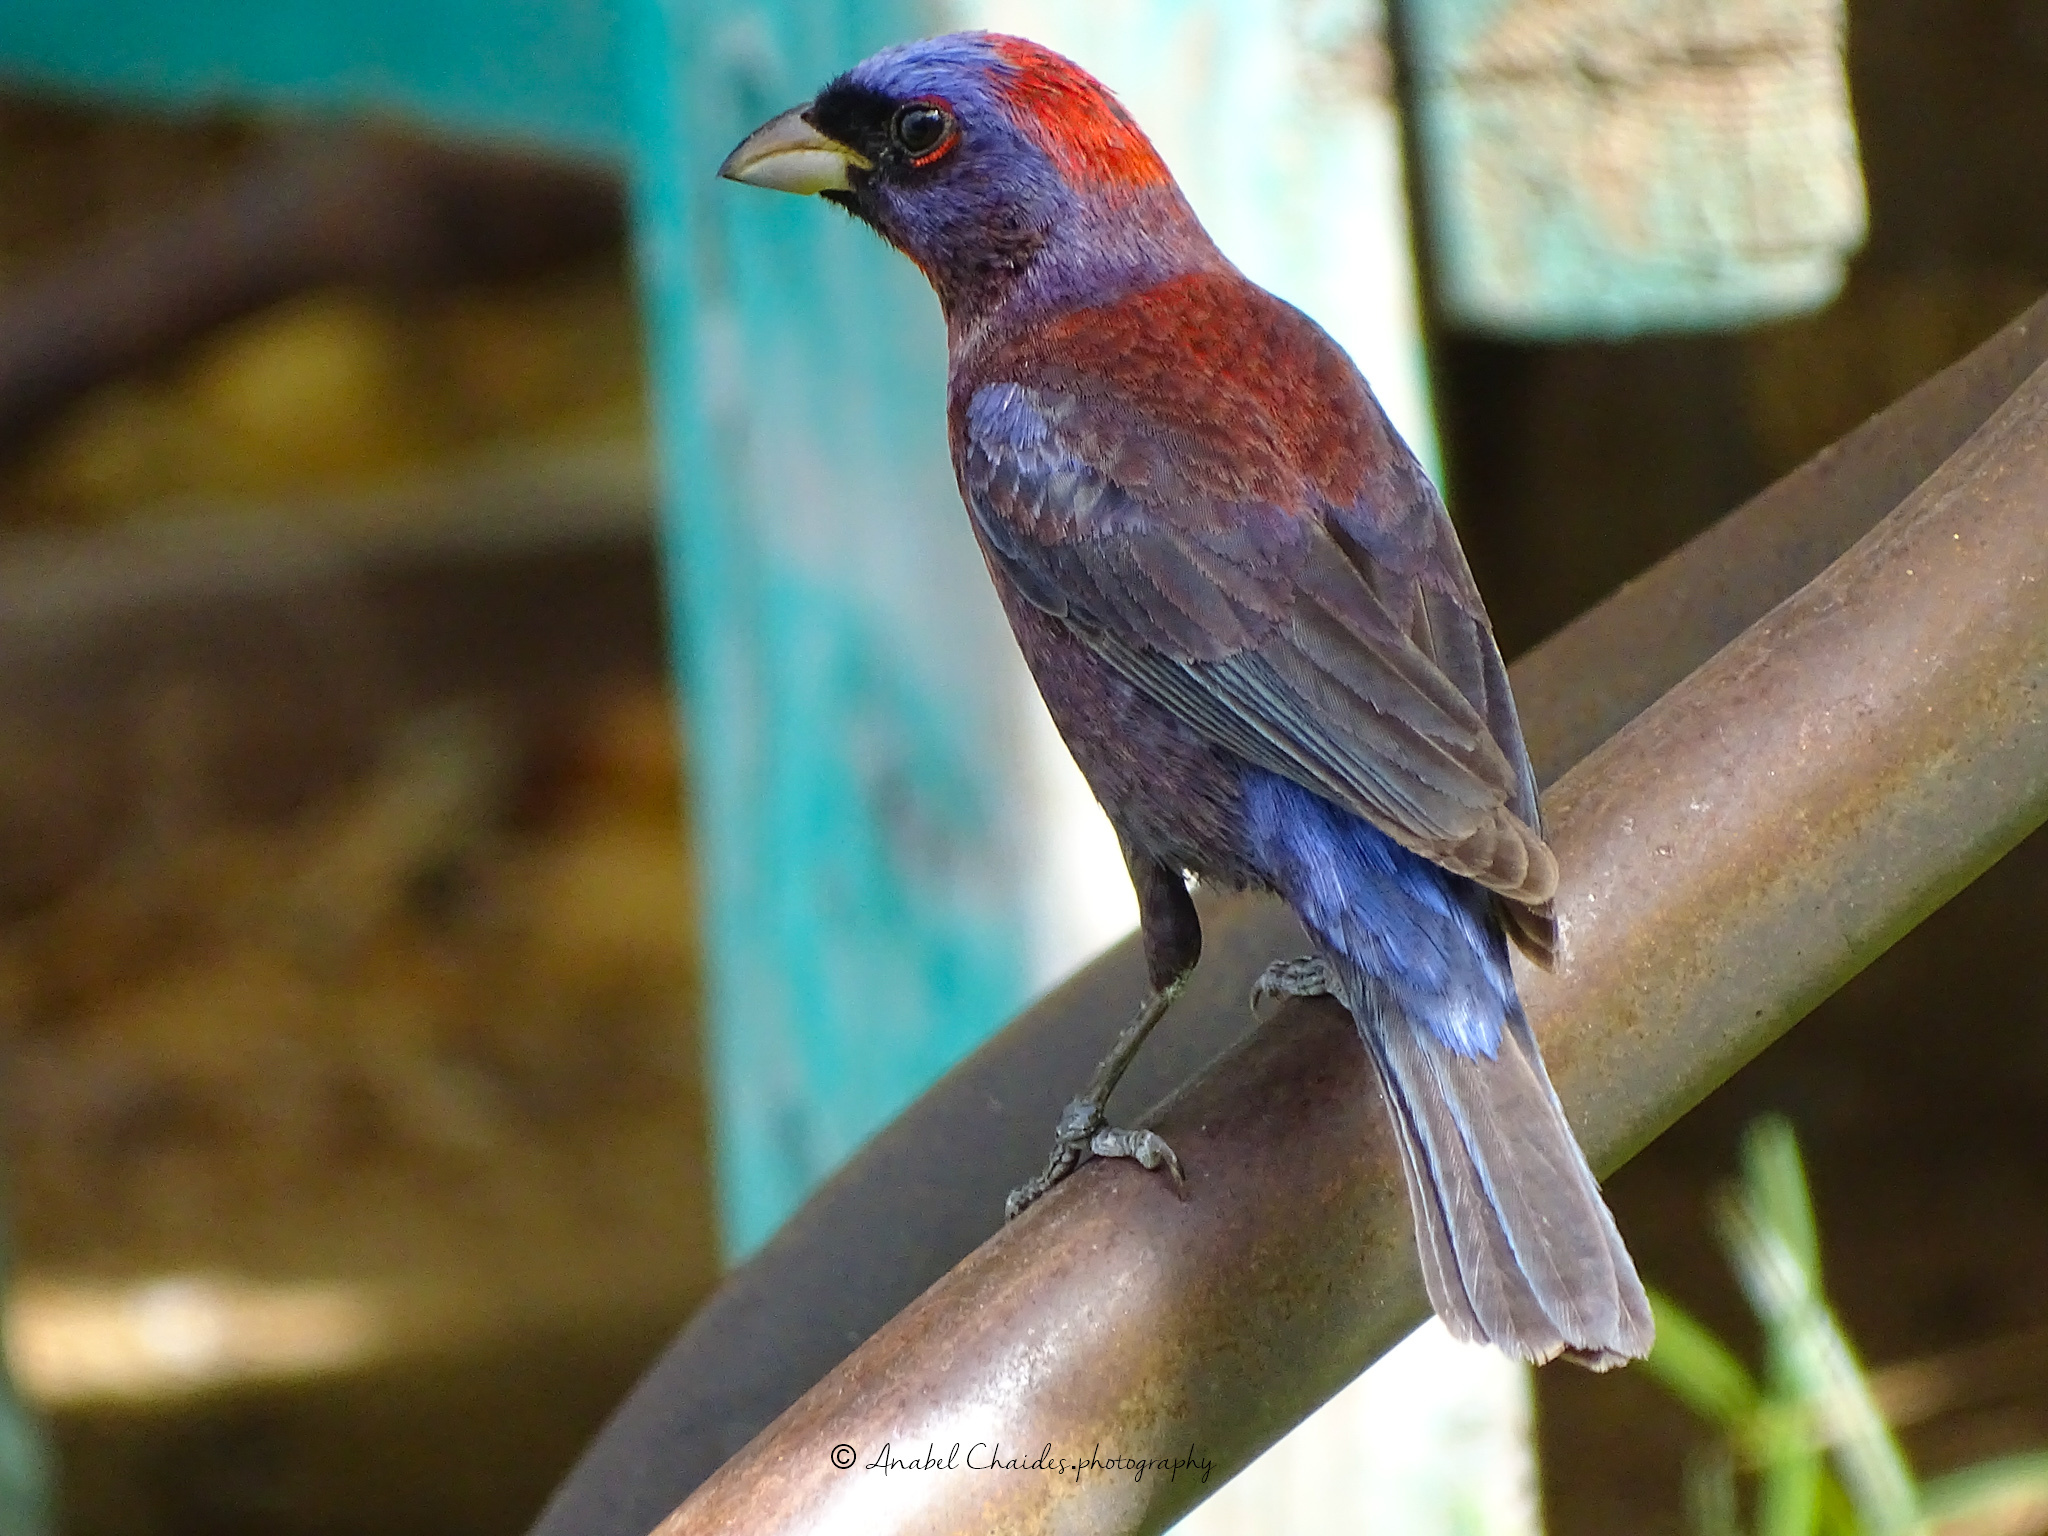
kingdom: Animalia
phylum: Chordata
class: Aves
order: Passeriformes
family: Cardinalidae
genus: Passerina
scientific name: Passerina versicolor
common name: Varied bunting
